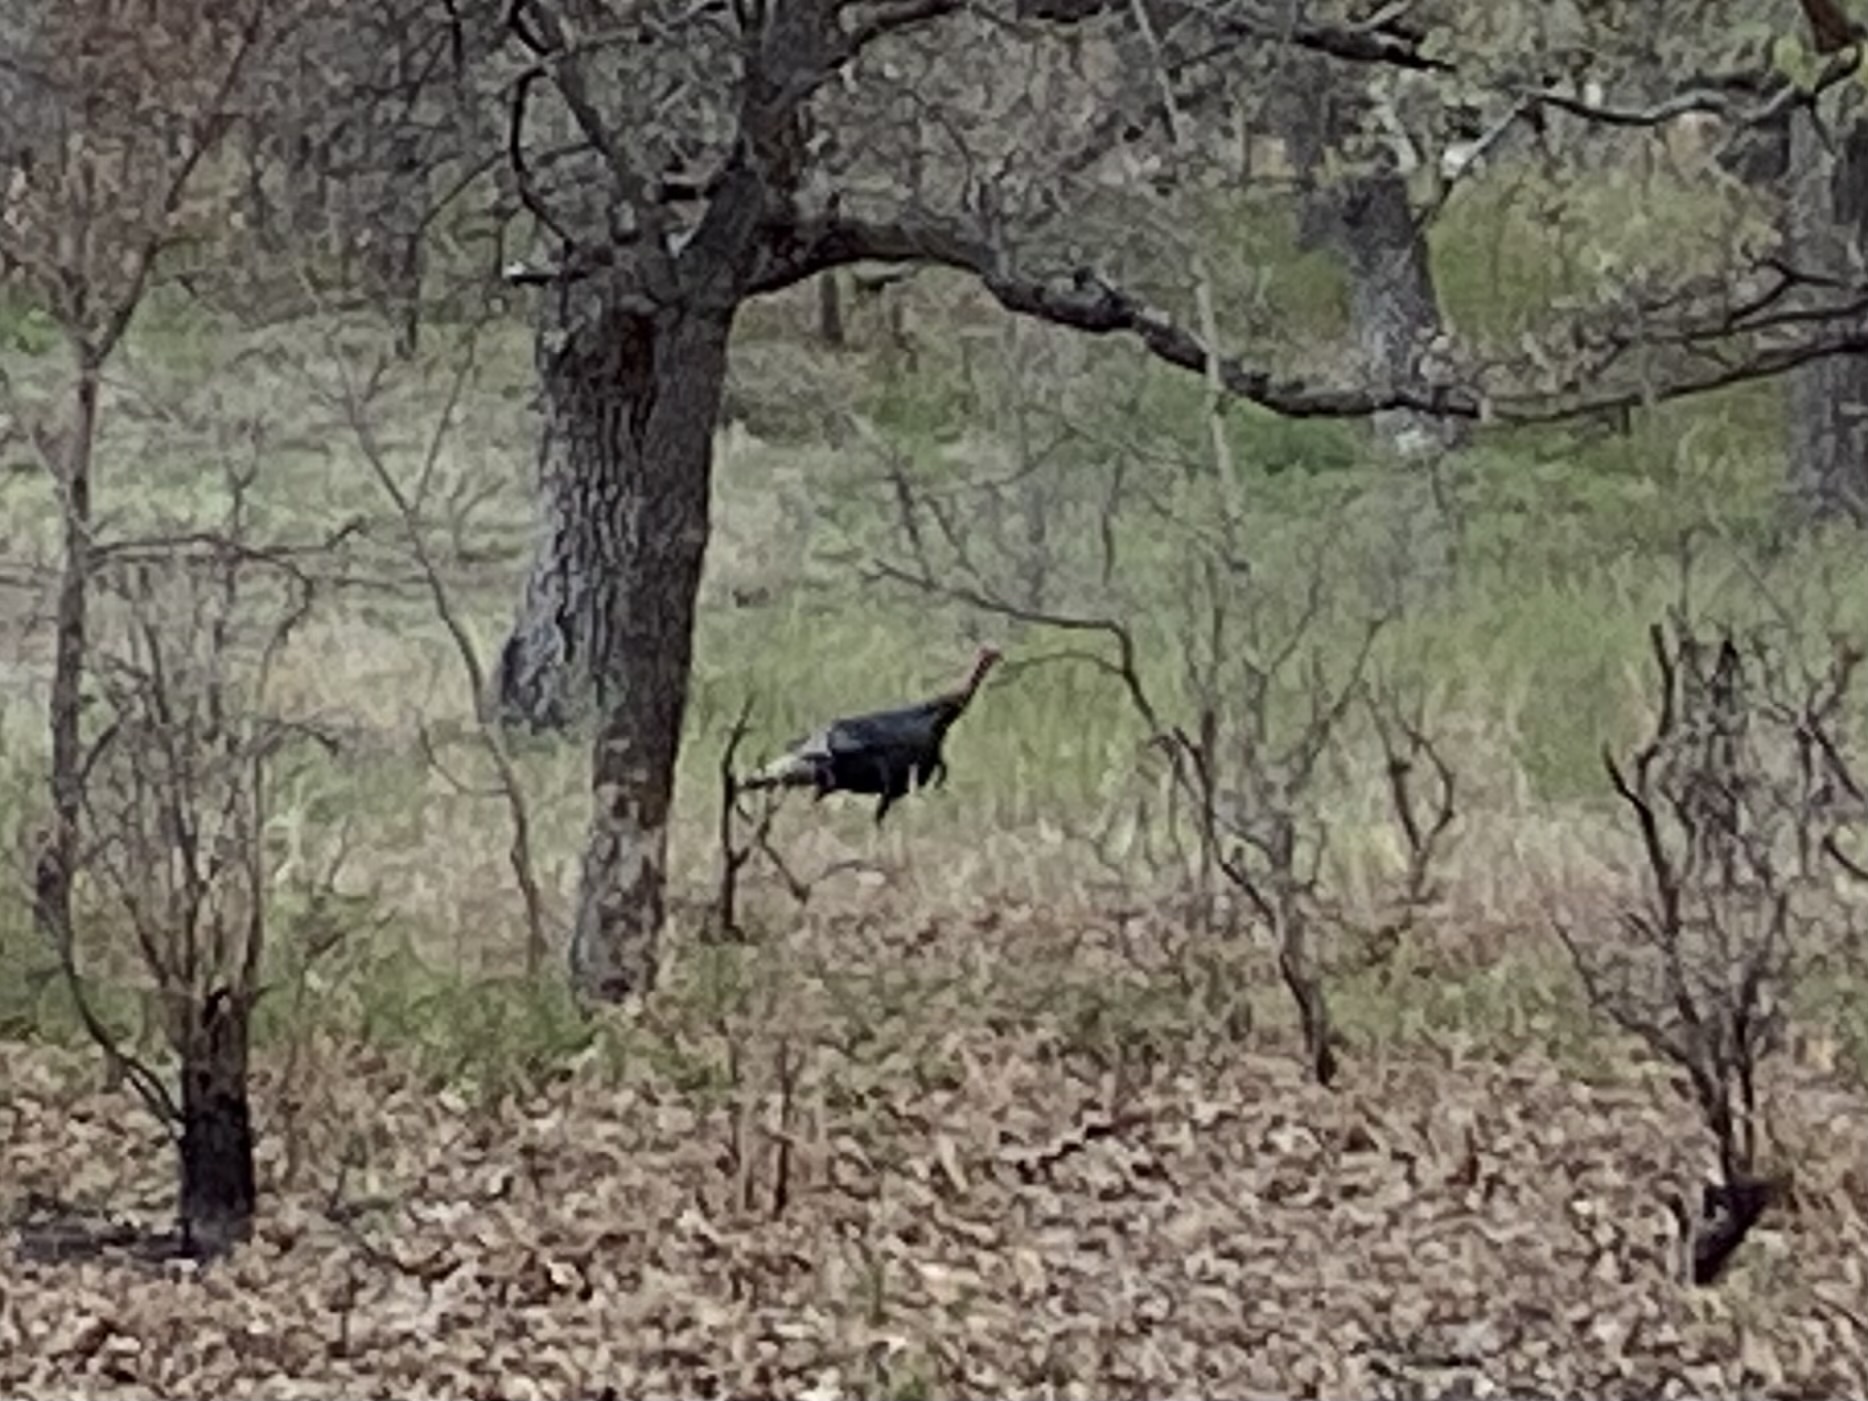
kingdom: Animalia
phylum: Chordata
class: Aves
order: Galliformes
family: Phasianidae
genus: Meleagris
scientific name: Meleagris gallopavo
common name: Wild turkey
